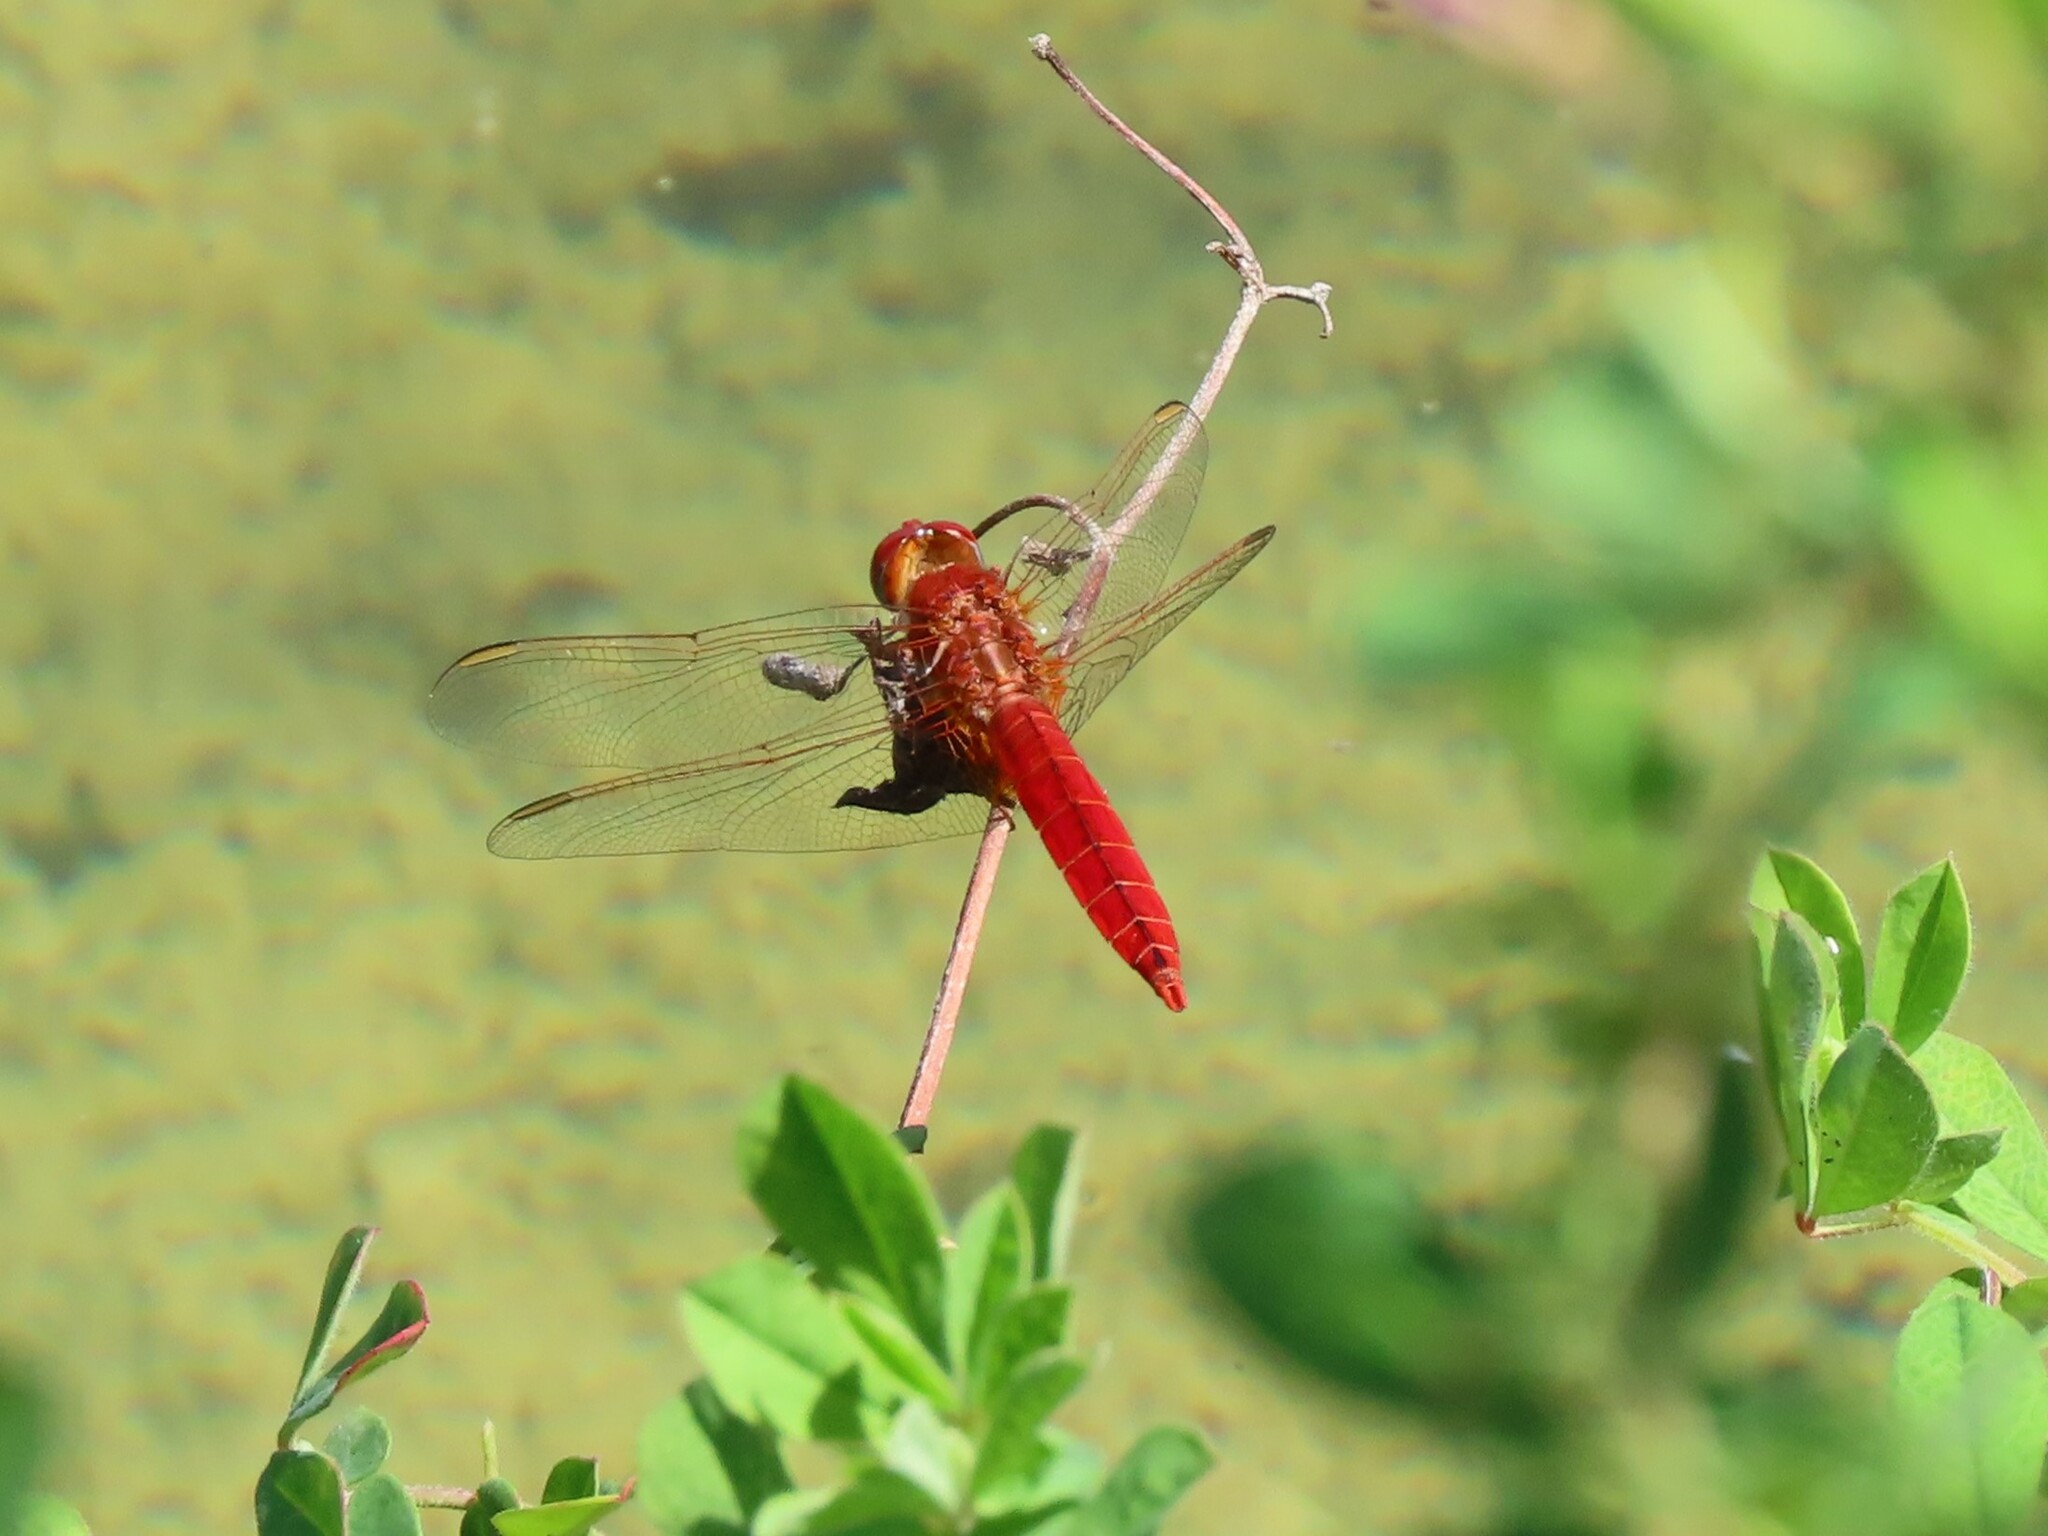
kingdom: Animalia
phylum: Arthropoda
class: Insecta
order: Odonata
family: Libellulidae
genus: Crocothemis
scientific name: Crocothemis erythraea
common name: Scarlet dragonfly
